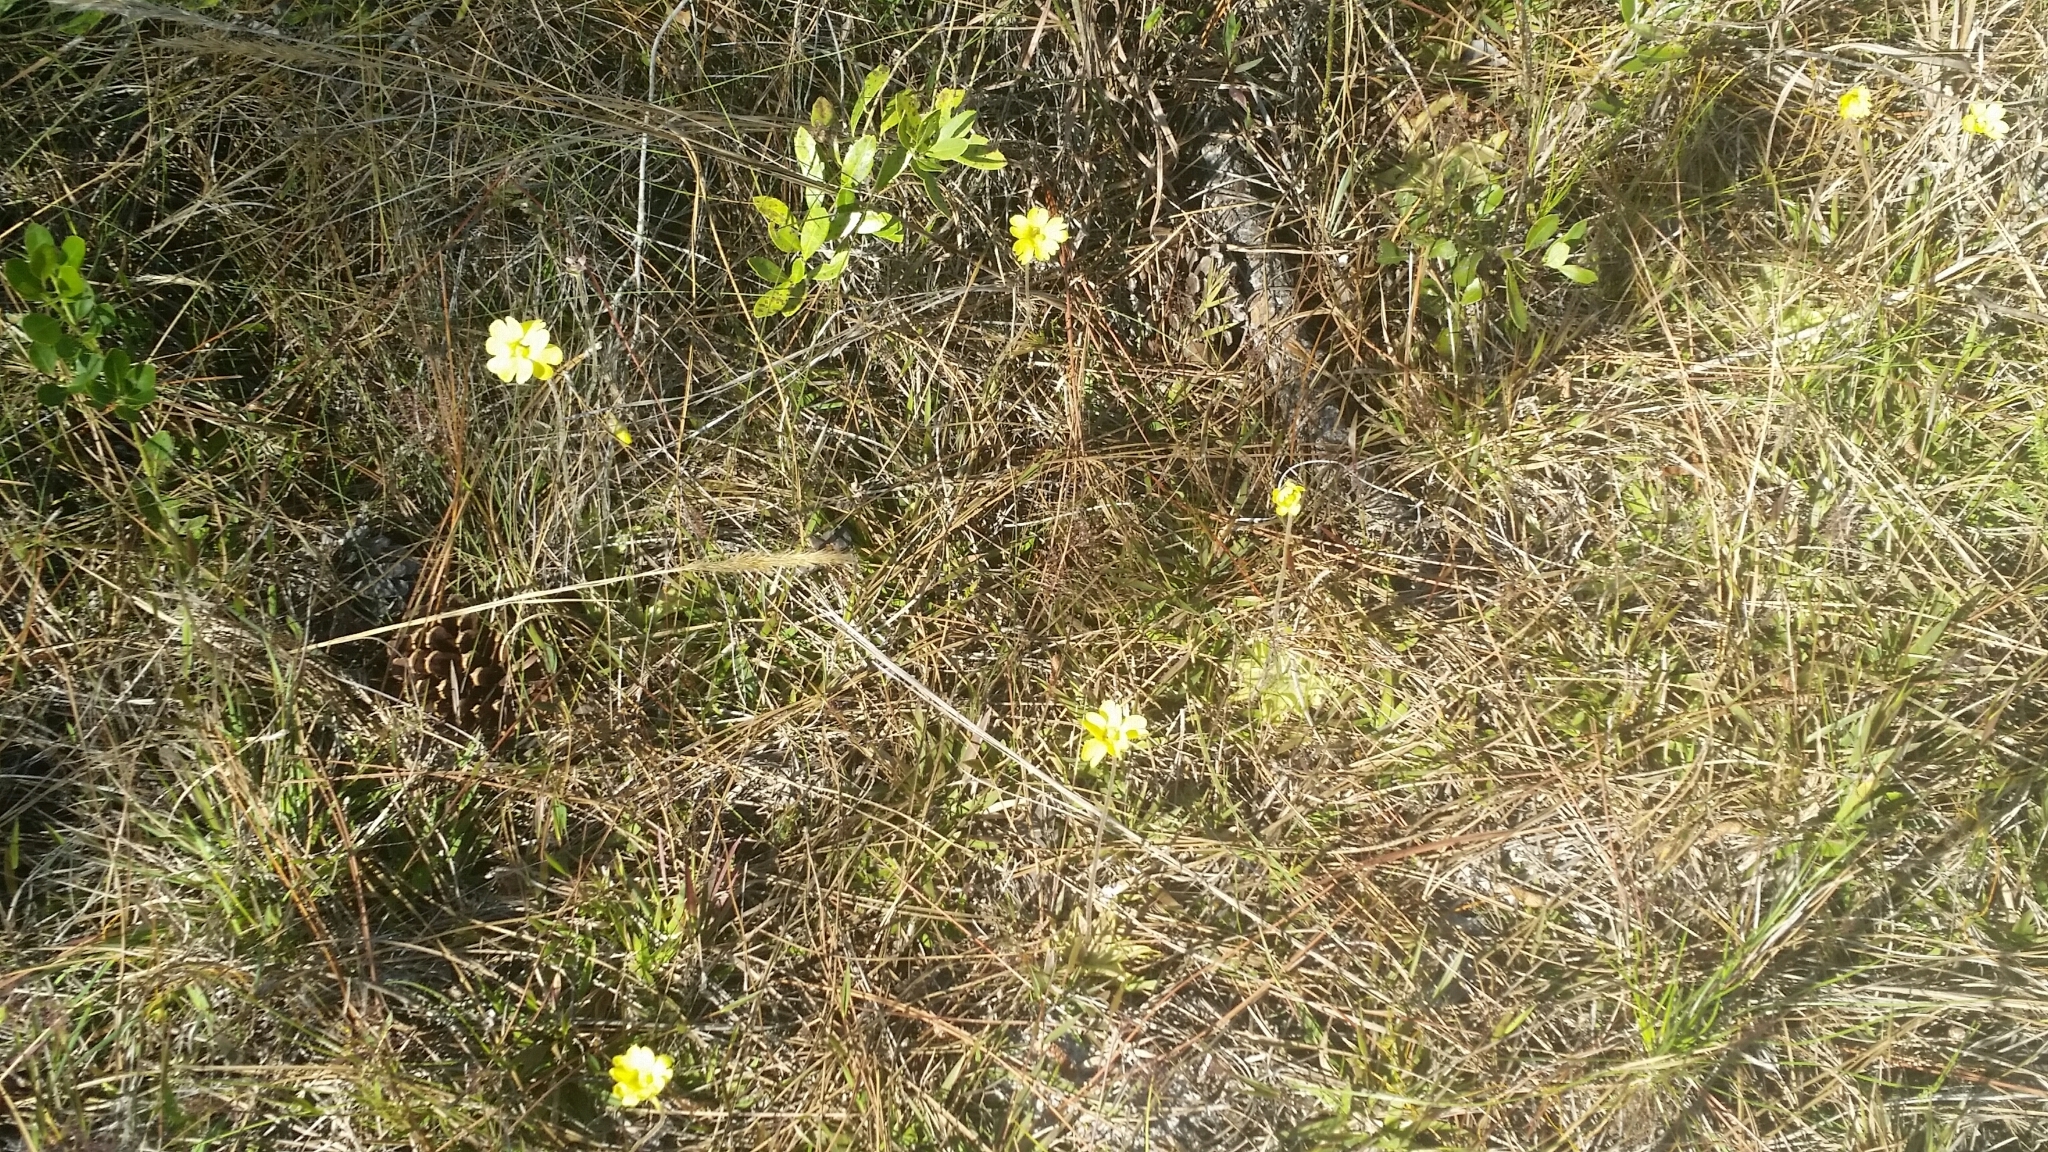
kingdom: Plantae
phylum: Tracheophyta
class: Magnoliopsida
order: Lamiales
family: Lentibulariaceae
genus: Pinguicula
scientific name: Pinguicula lutea
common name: Yellow butterwort
